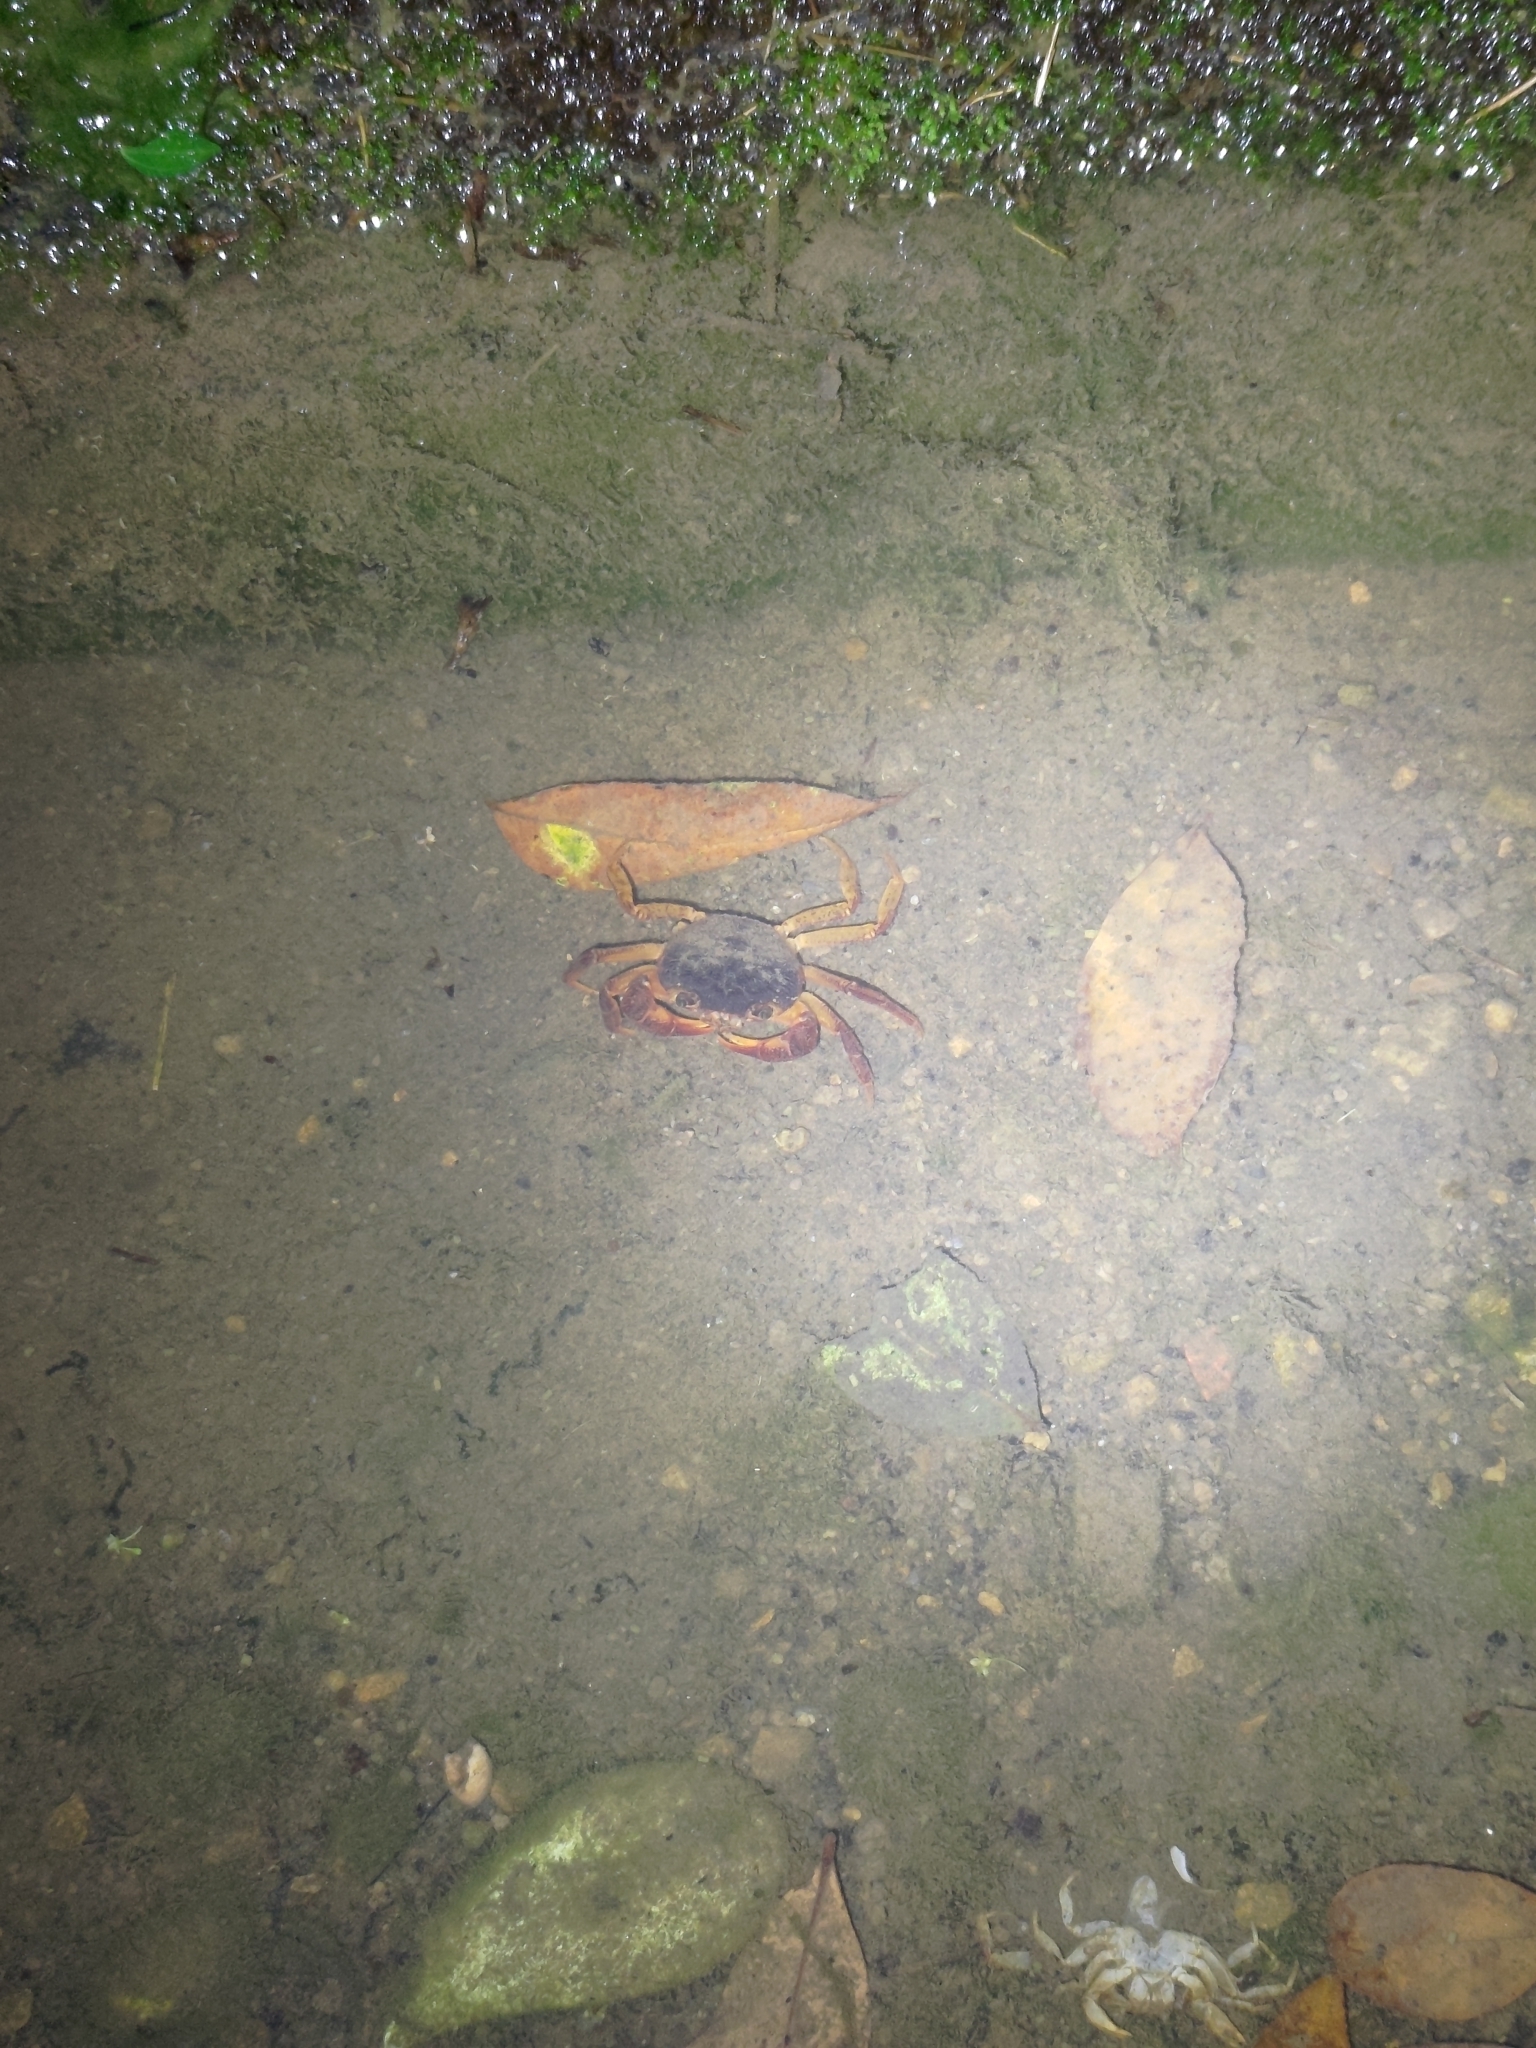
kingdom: Animalia
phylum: Arthropoda
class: Malacostraca
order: Decapoda
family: Potamidae
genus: Candidiopotamon
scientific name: Candidiopotamon rathbuni
